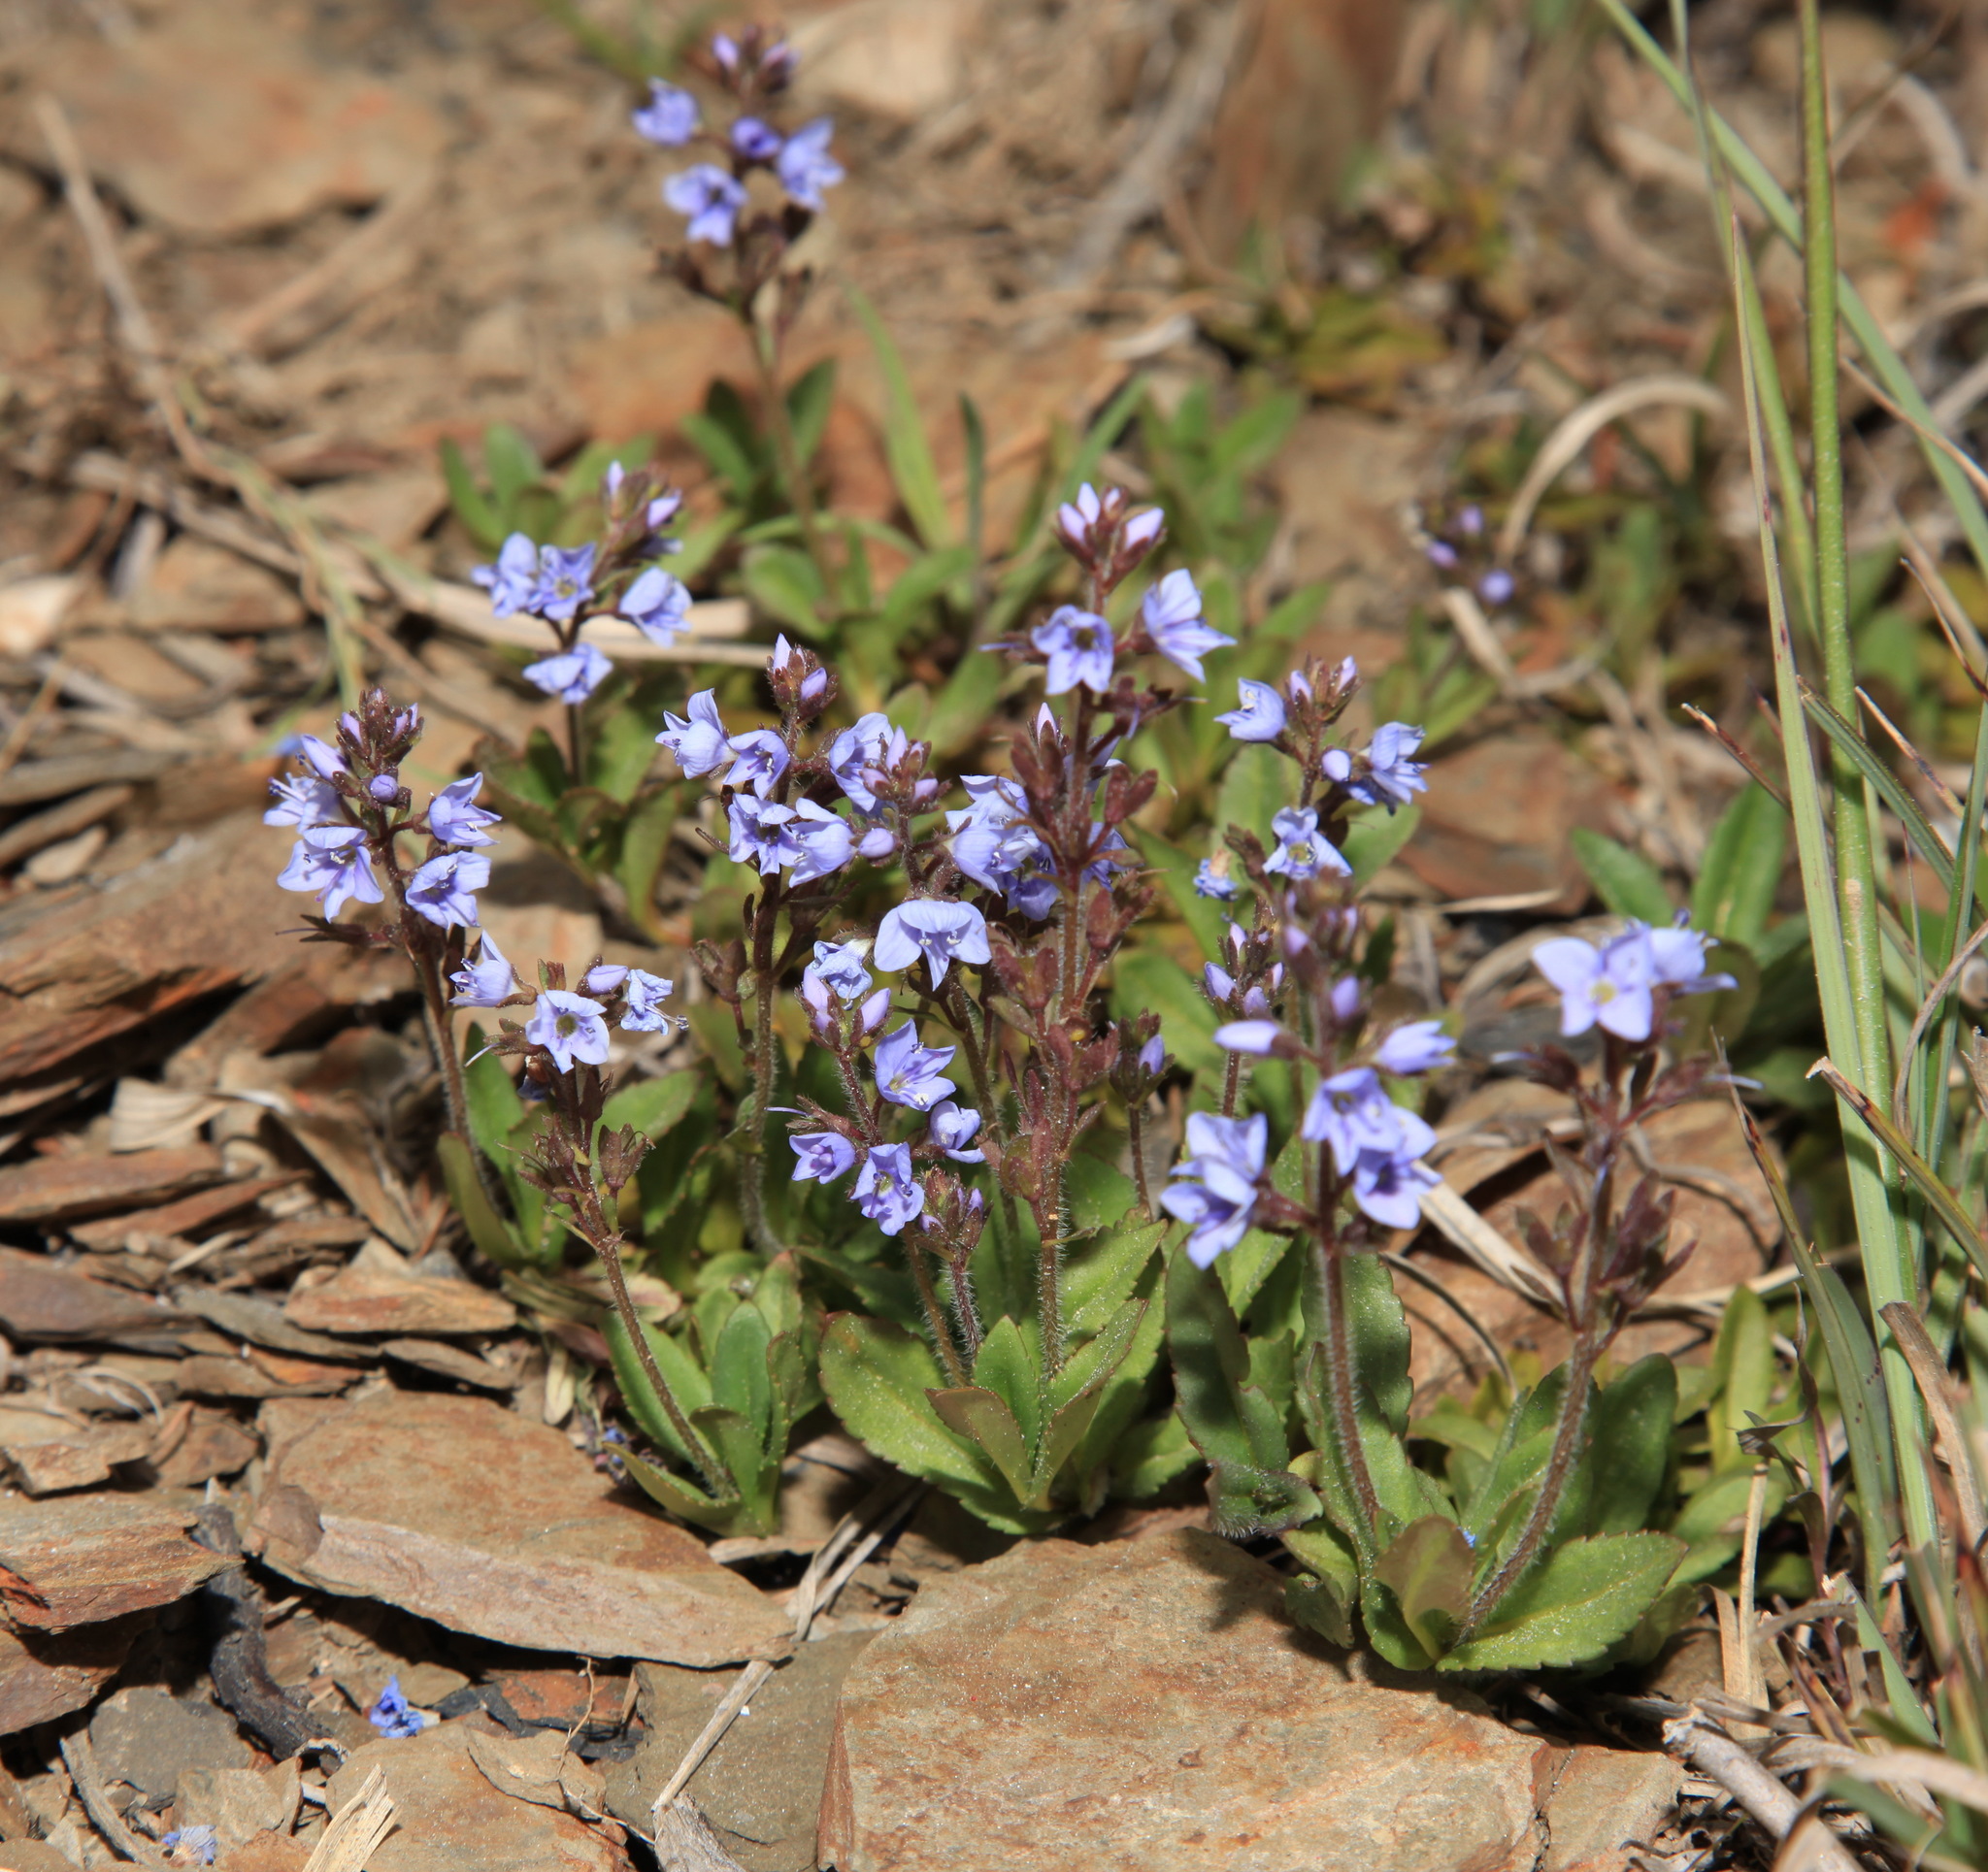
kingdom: Plantae
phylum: Tracheophyta
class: Magnoliopsida
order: Lamiales
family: Plantaginaceae
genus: Veronica
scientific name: Veronica morrisonicola
